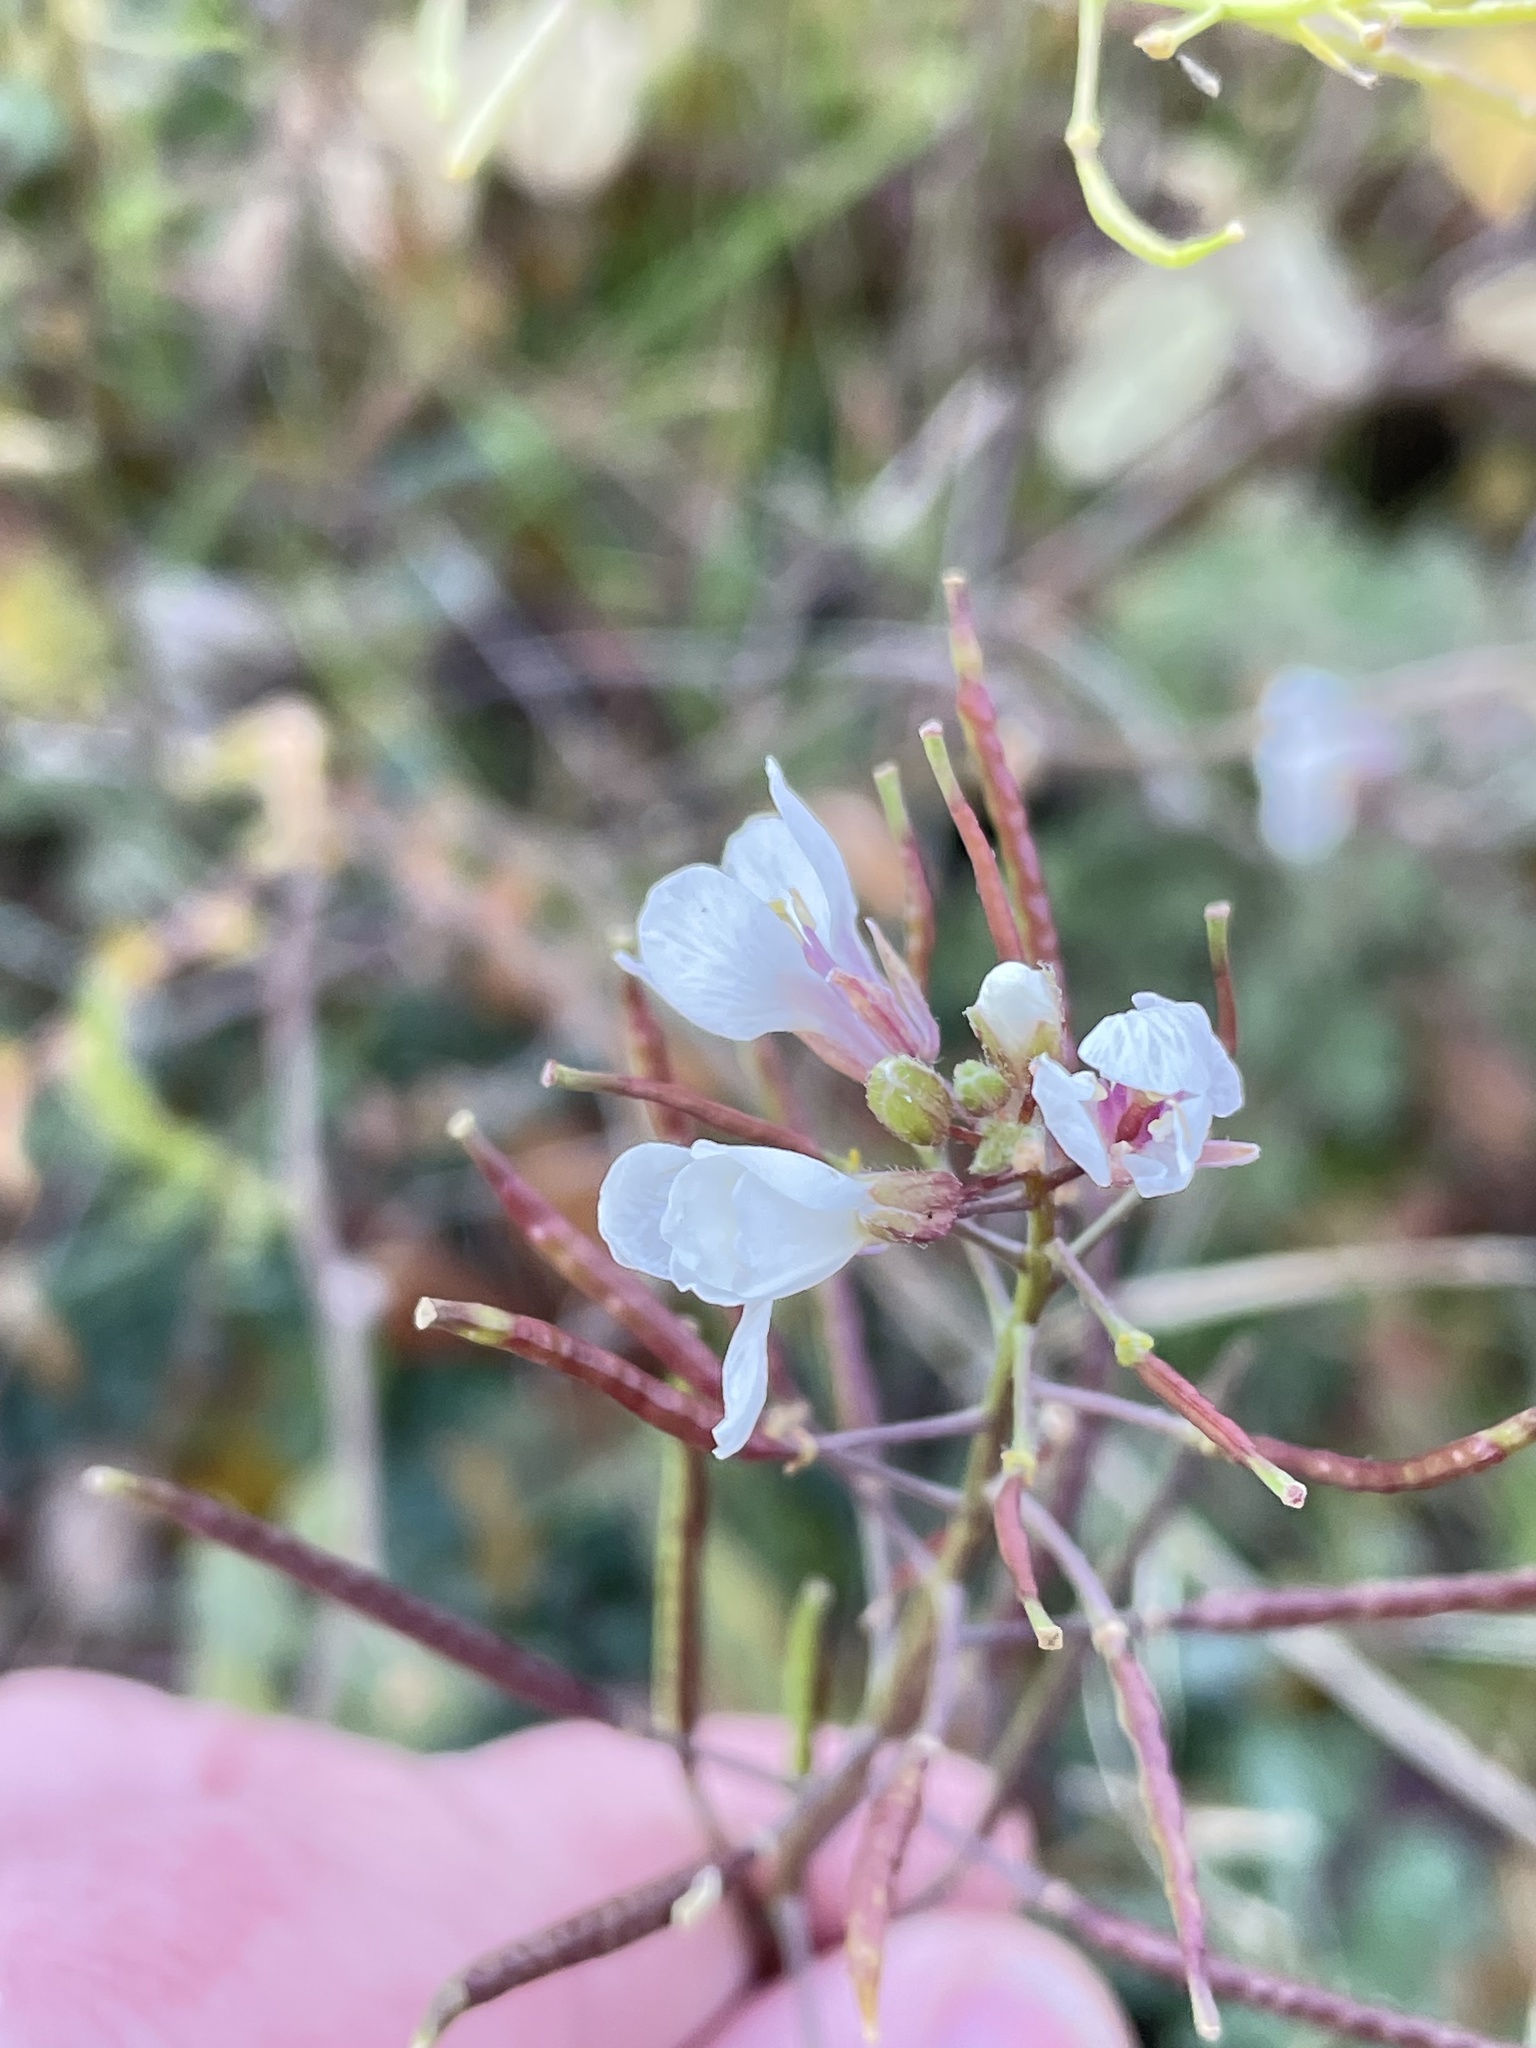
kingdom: Plantae
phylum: Tracheophyta
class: Magnoliopsida
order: Brassicales
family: Brassicaceae
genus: Diplotaxis
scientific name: Diplotaxis erucoides
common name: White rocket
